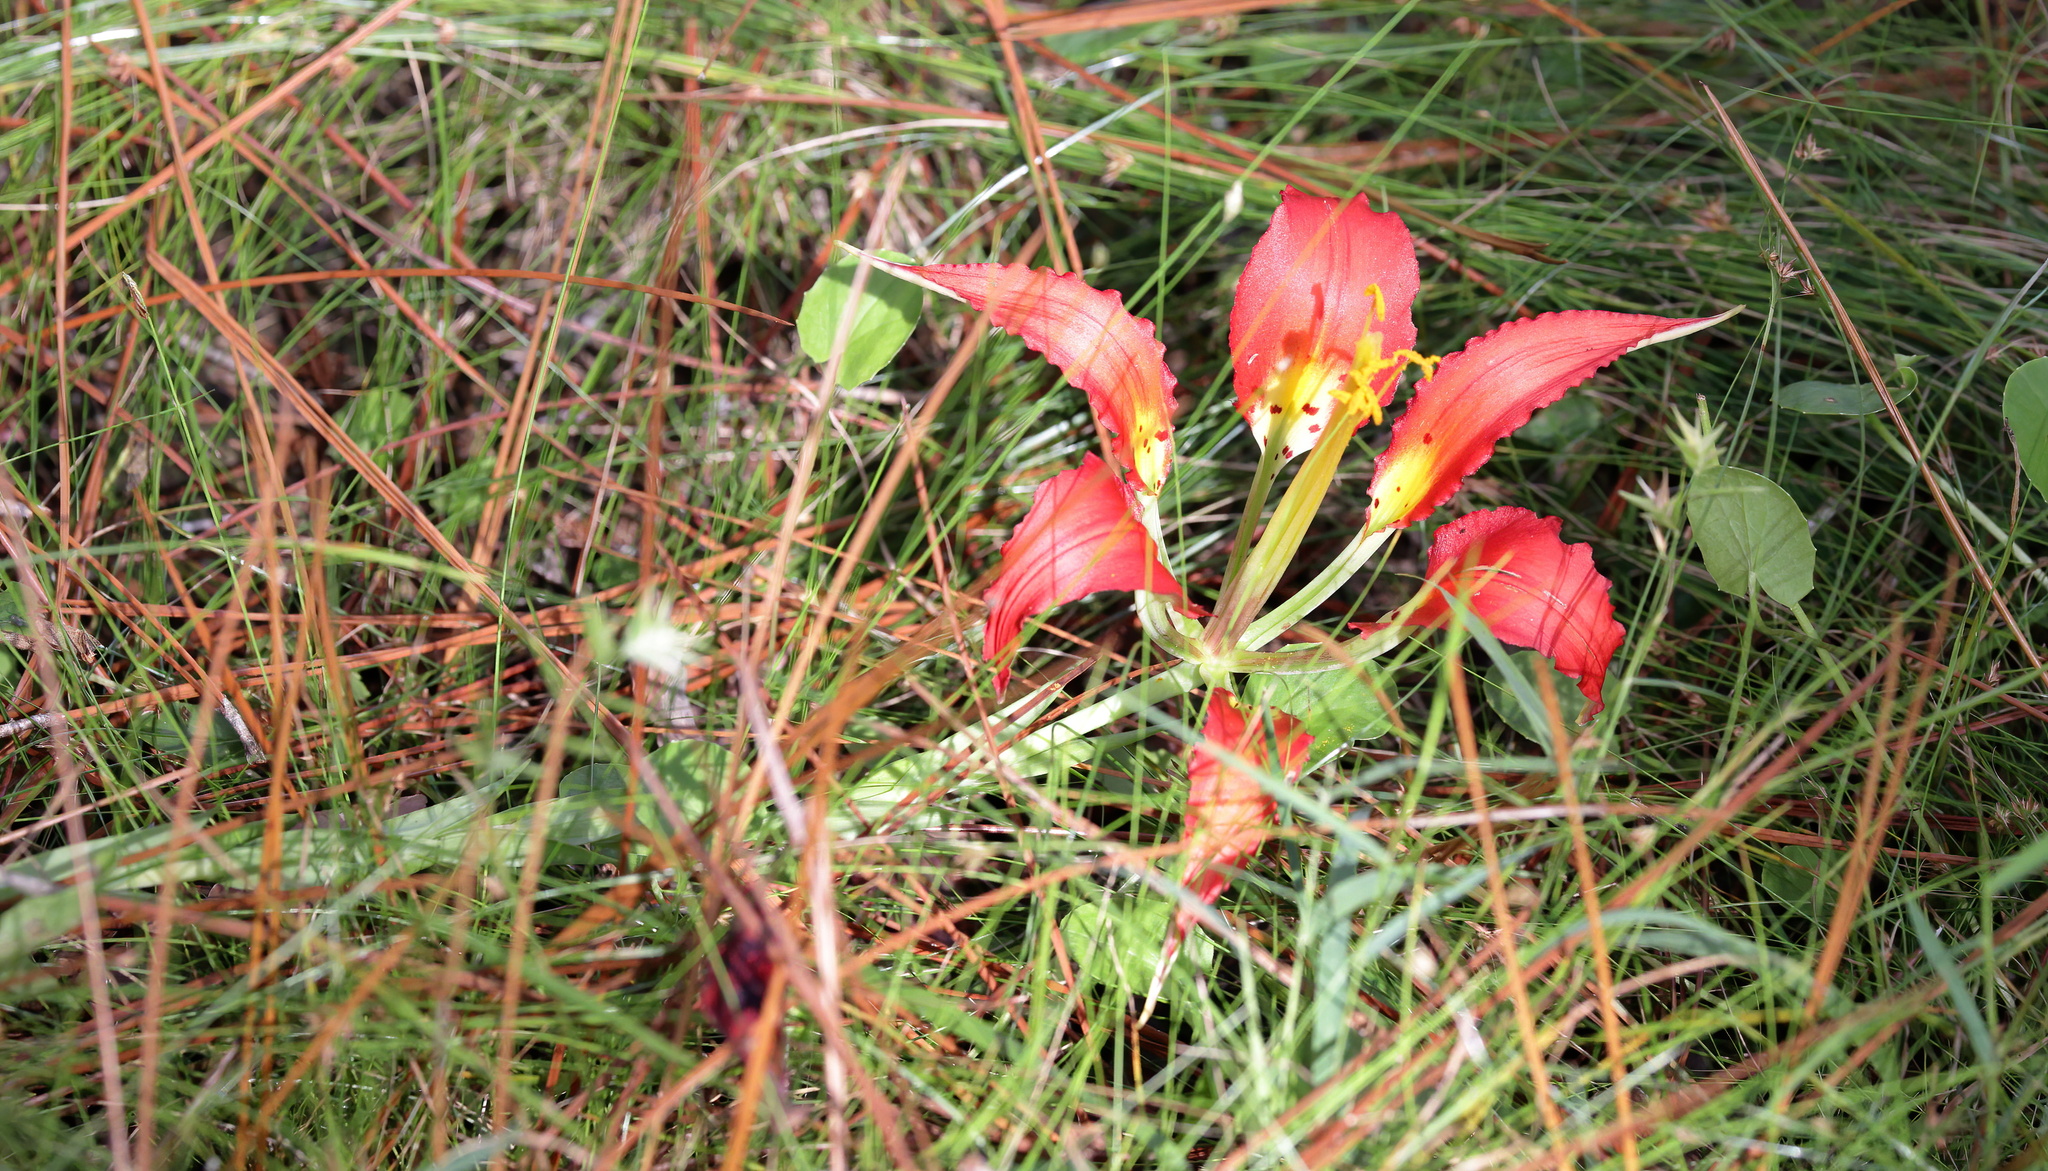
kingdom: Plantae
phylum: Tracheophyta
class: Liliopsida
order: Liliales
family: Liliaceae
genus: Lilium
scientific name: Lilium catesbaei
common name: Catesby's lily
